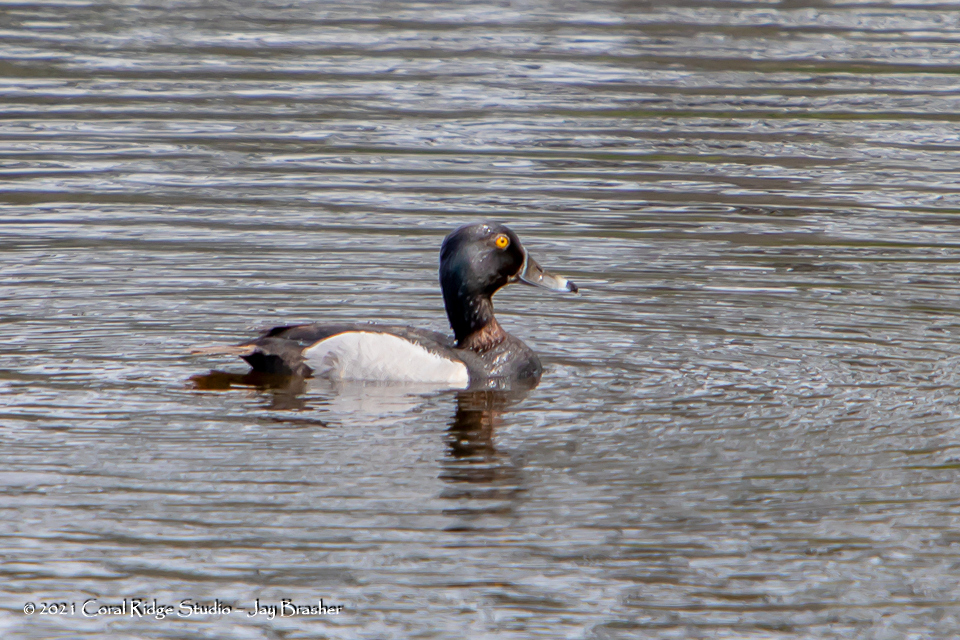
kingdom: Animalia
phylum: Chordata
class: Aves
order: Anseriformes
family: Anatidae
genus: Aythya
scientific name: Aythya collaris
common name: Ring-necked duck
